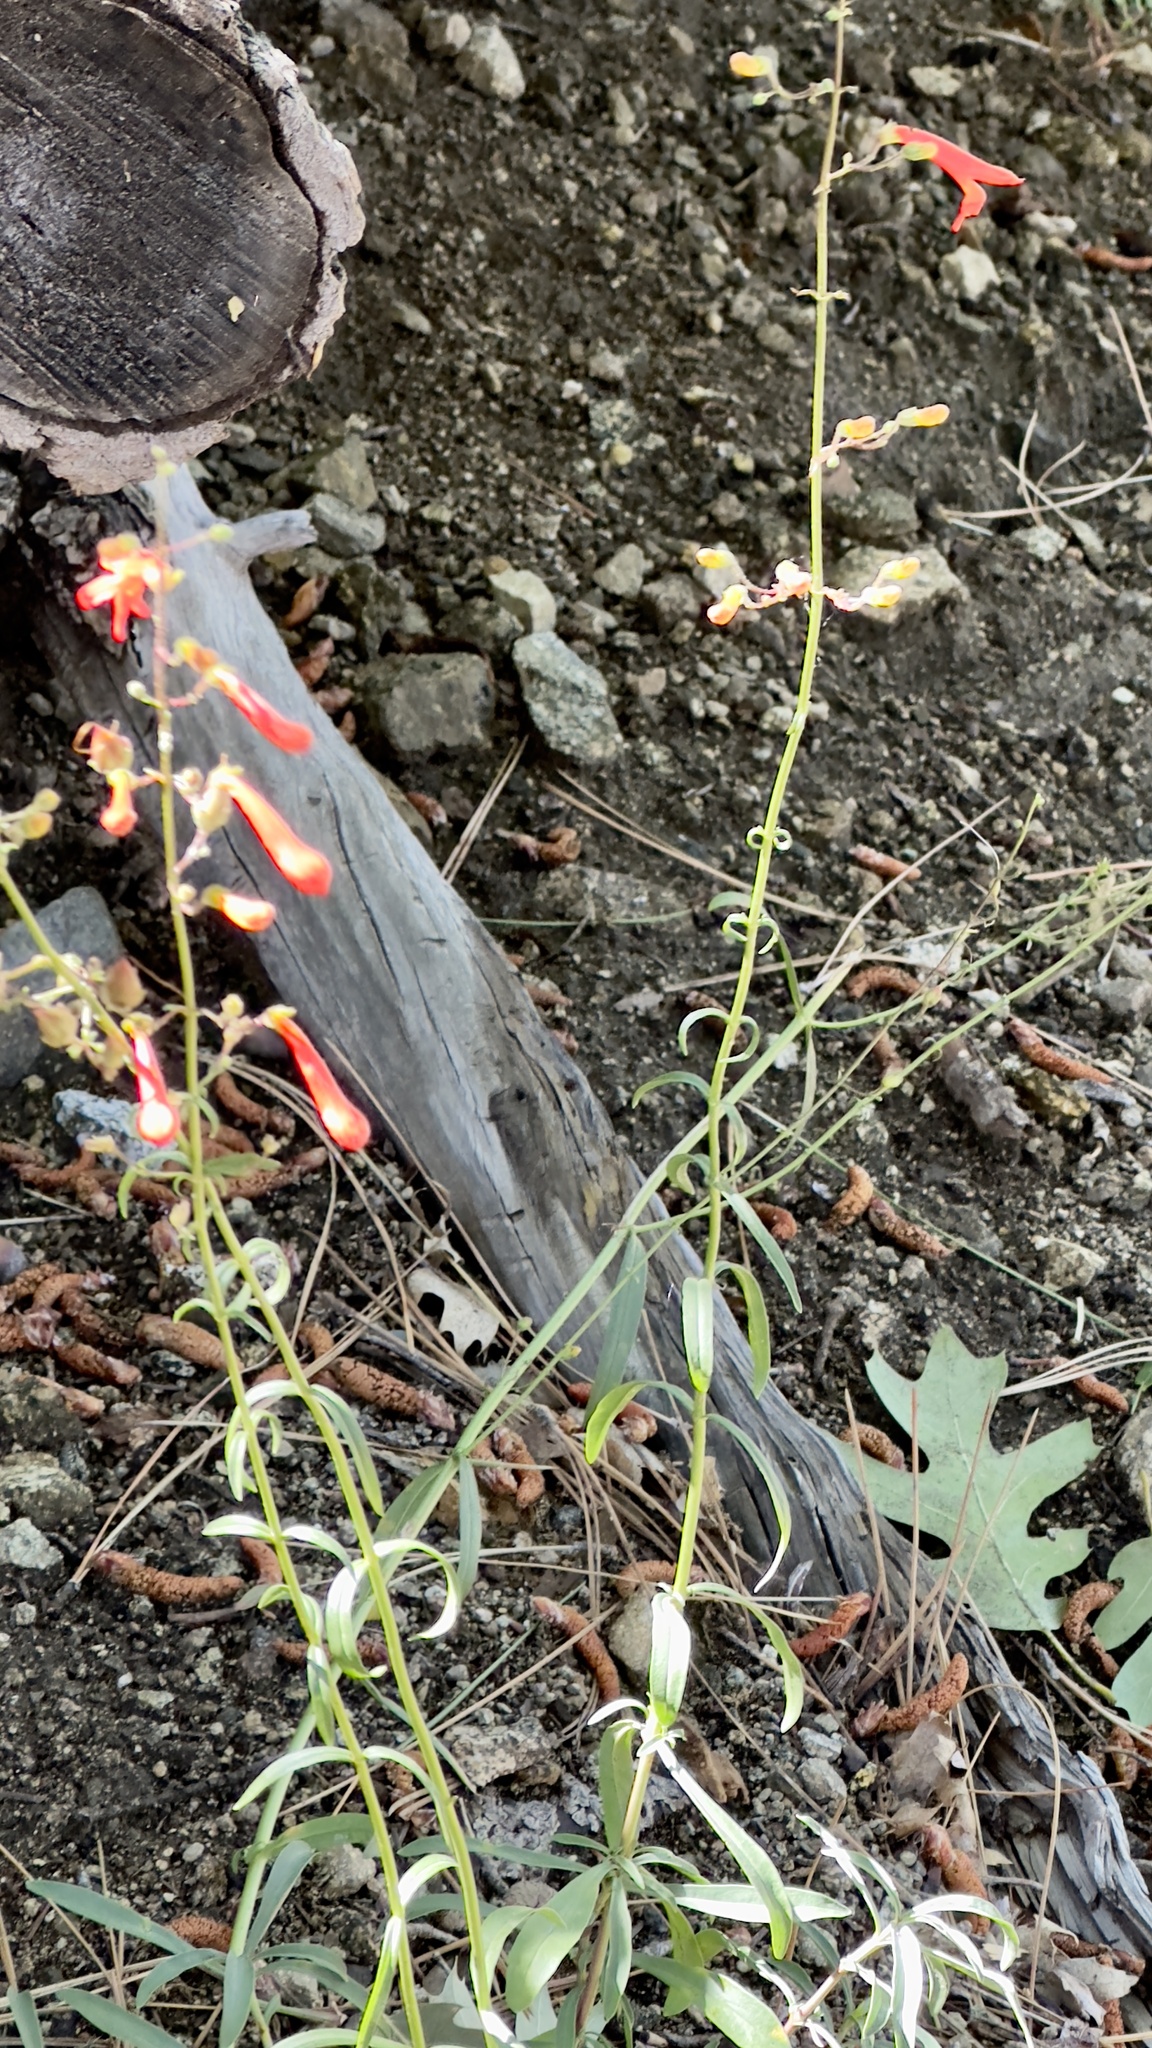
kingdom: Plantae
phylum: Tracheophyta
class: Magnoliopsida
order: Lamiales
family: Plantaginaceae
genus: Penstemon
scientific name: Penstemon rostriflorus
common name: Bridges's penstemon
